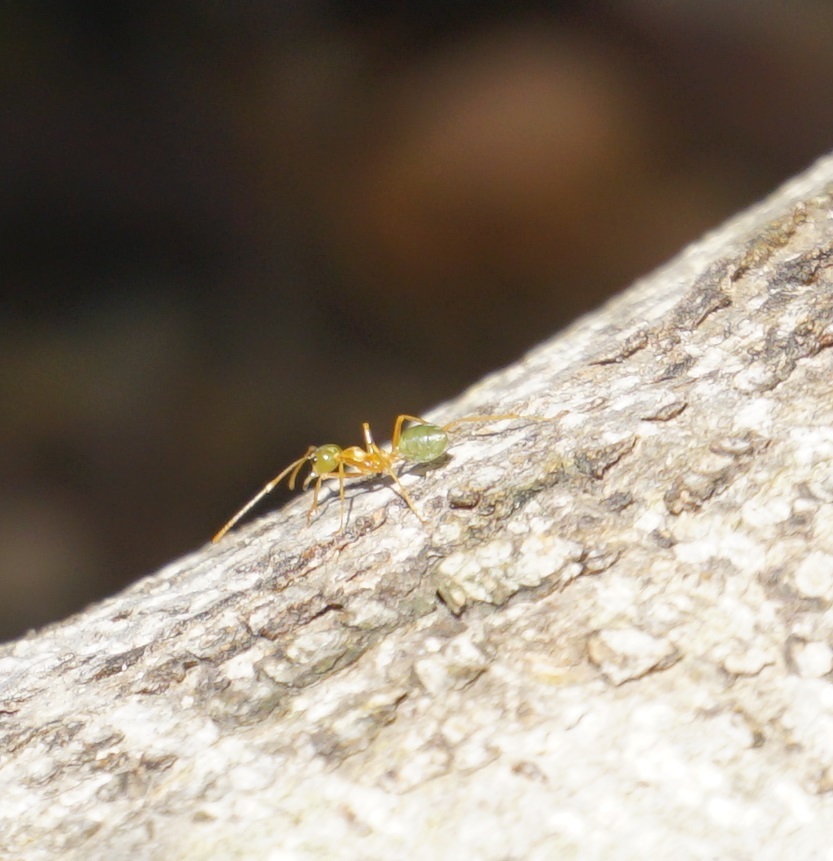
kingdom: Animalia
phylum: Arthropoda
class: Insecta
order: Hymenoptera
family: Formicidae
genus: Oecophylla
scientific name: Oecophylla smaragdina
